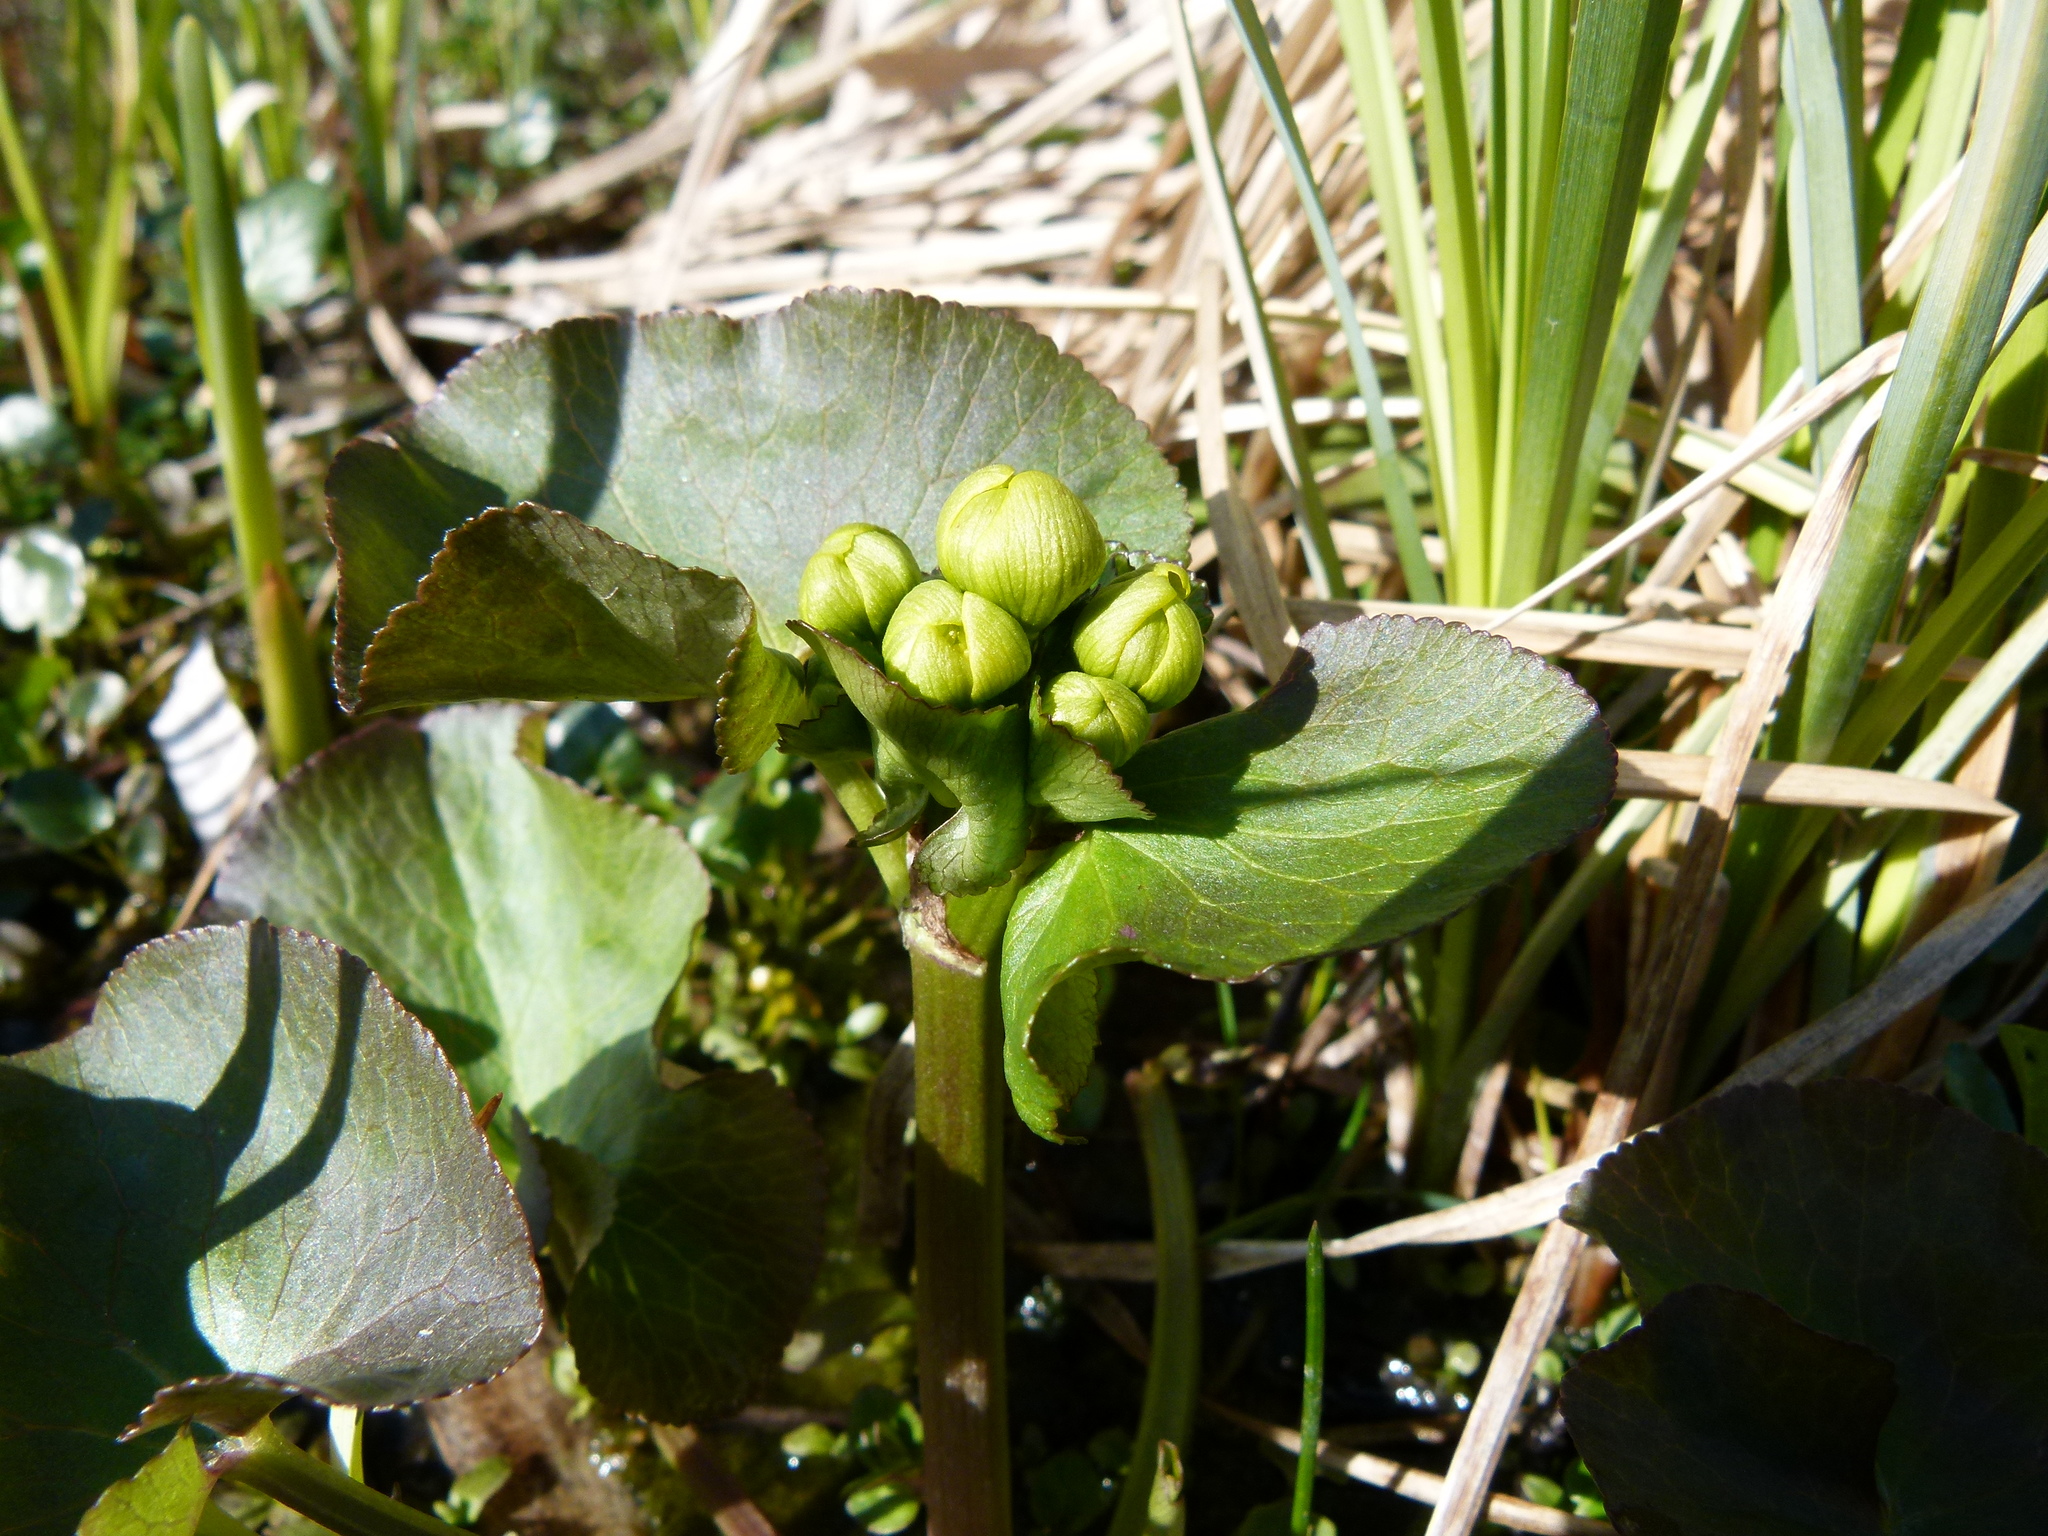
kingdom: Plantae
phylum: Tracheophyta
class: Magnoliopsida
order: Ranunculales
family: Ranunculaceae
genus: Caltha
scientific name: Caltha palustris
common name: Marsh marigold
